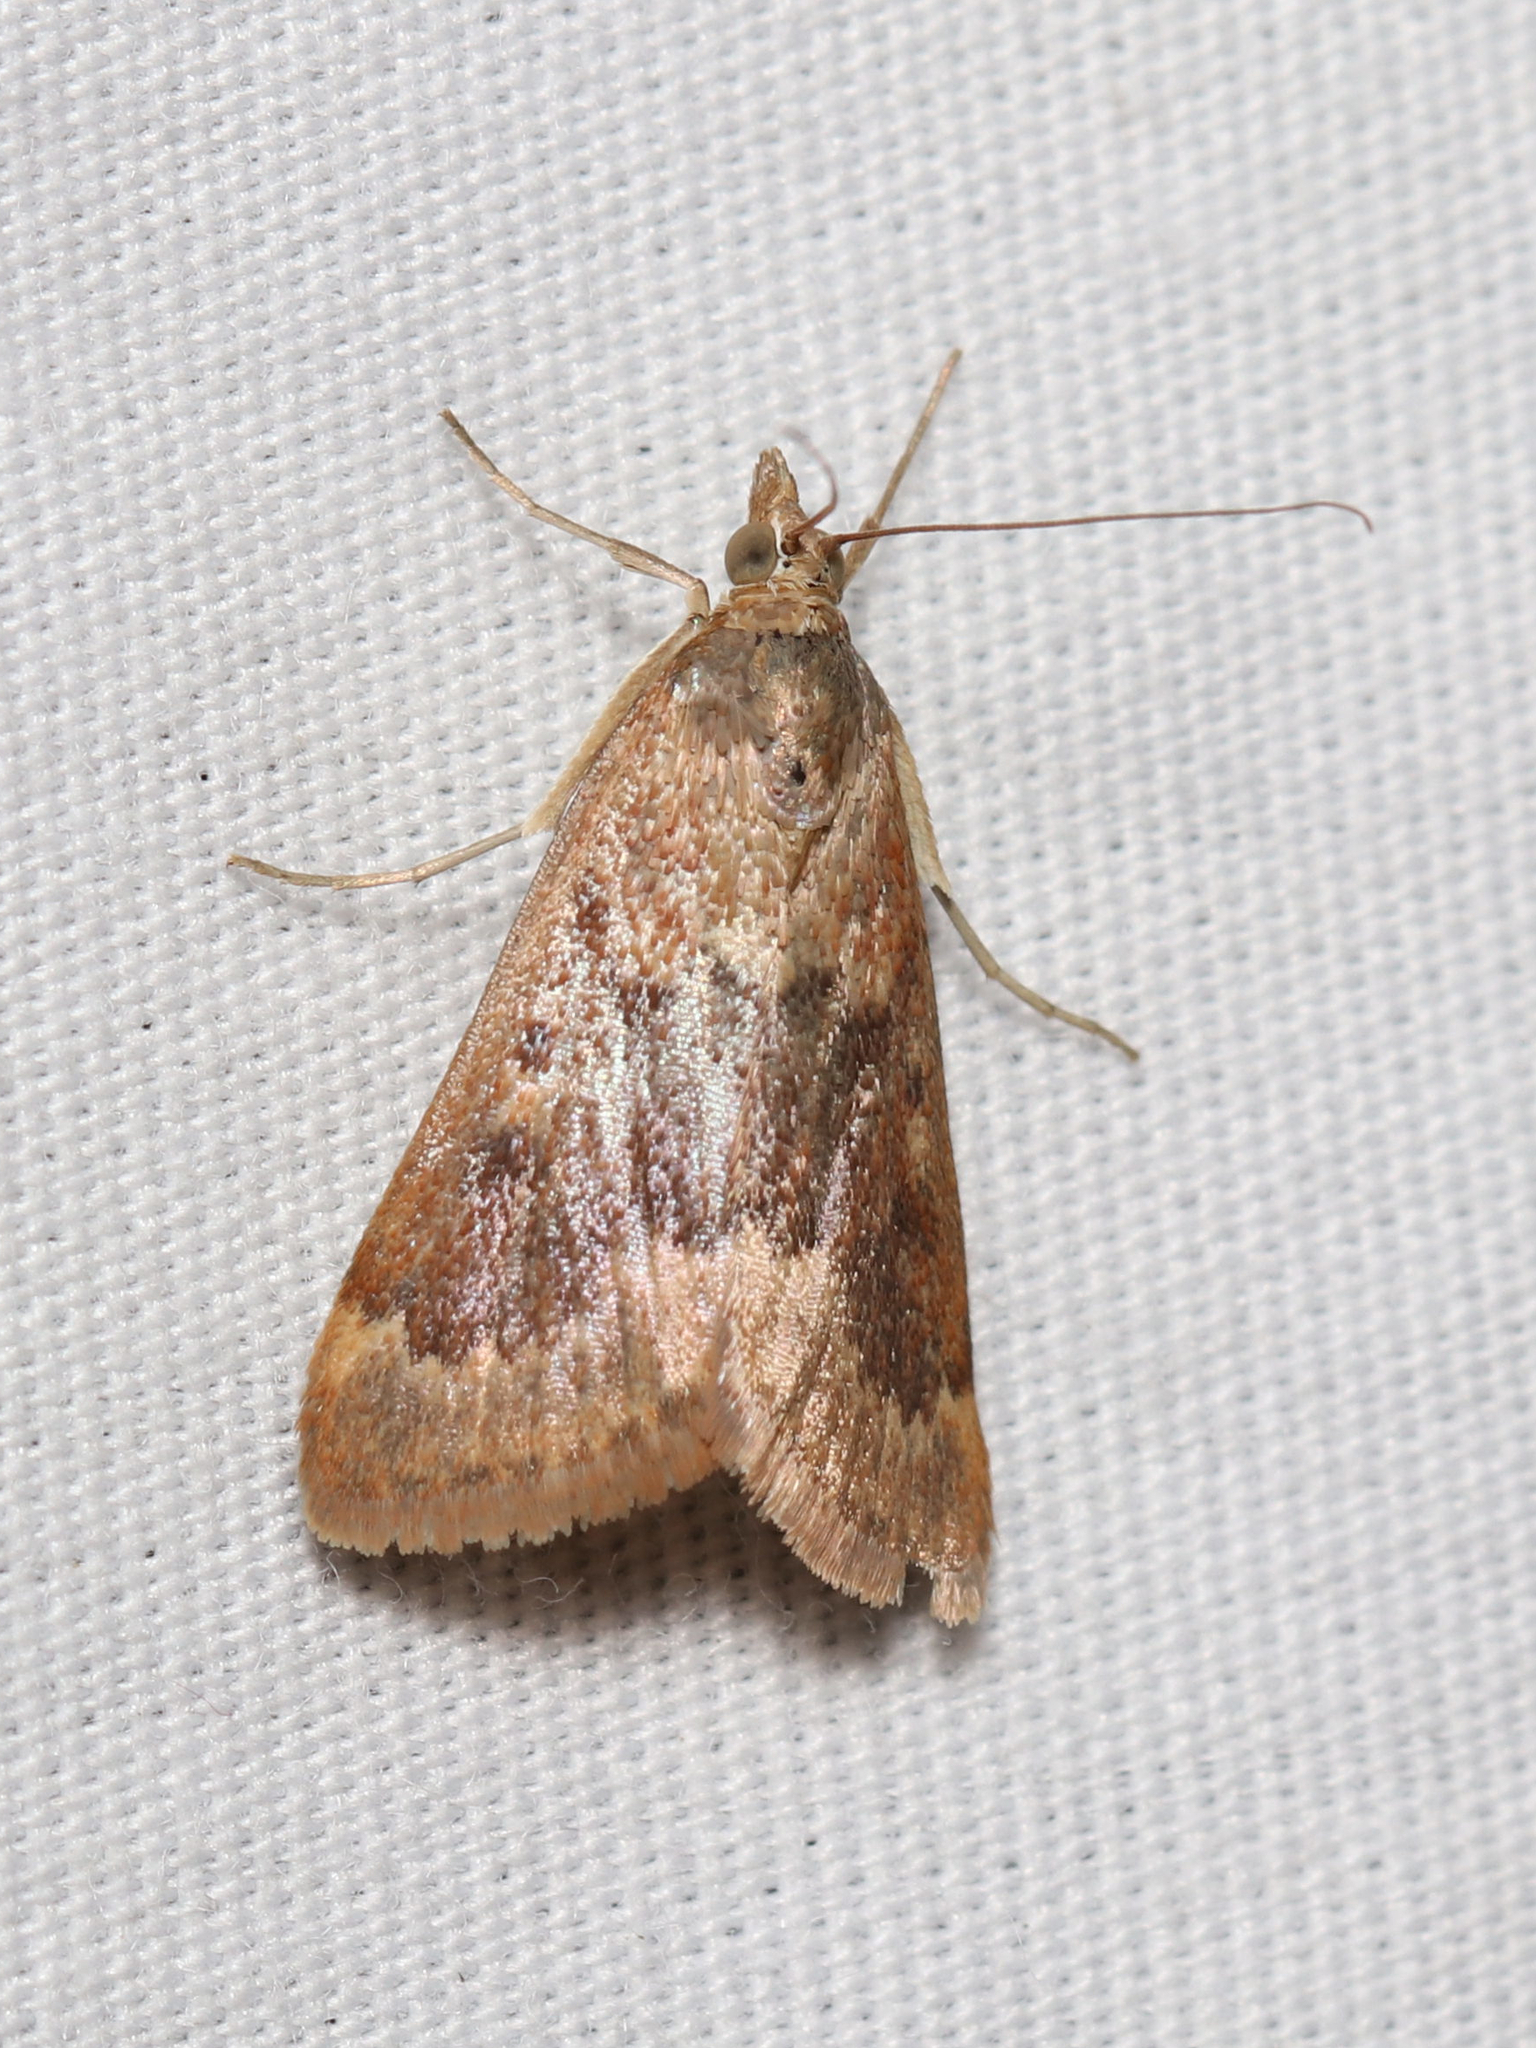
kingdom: Animalia
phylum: Arthropoda
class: Insecta
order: Lepidoptera
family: Crambidae
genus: Achyra
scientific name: Achyra rantalis
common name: Garden webworm
